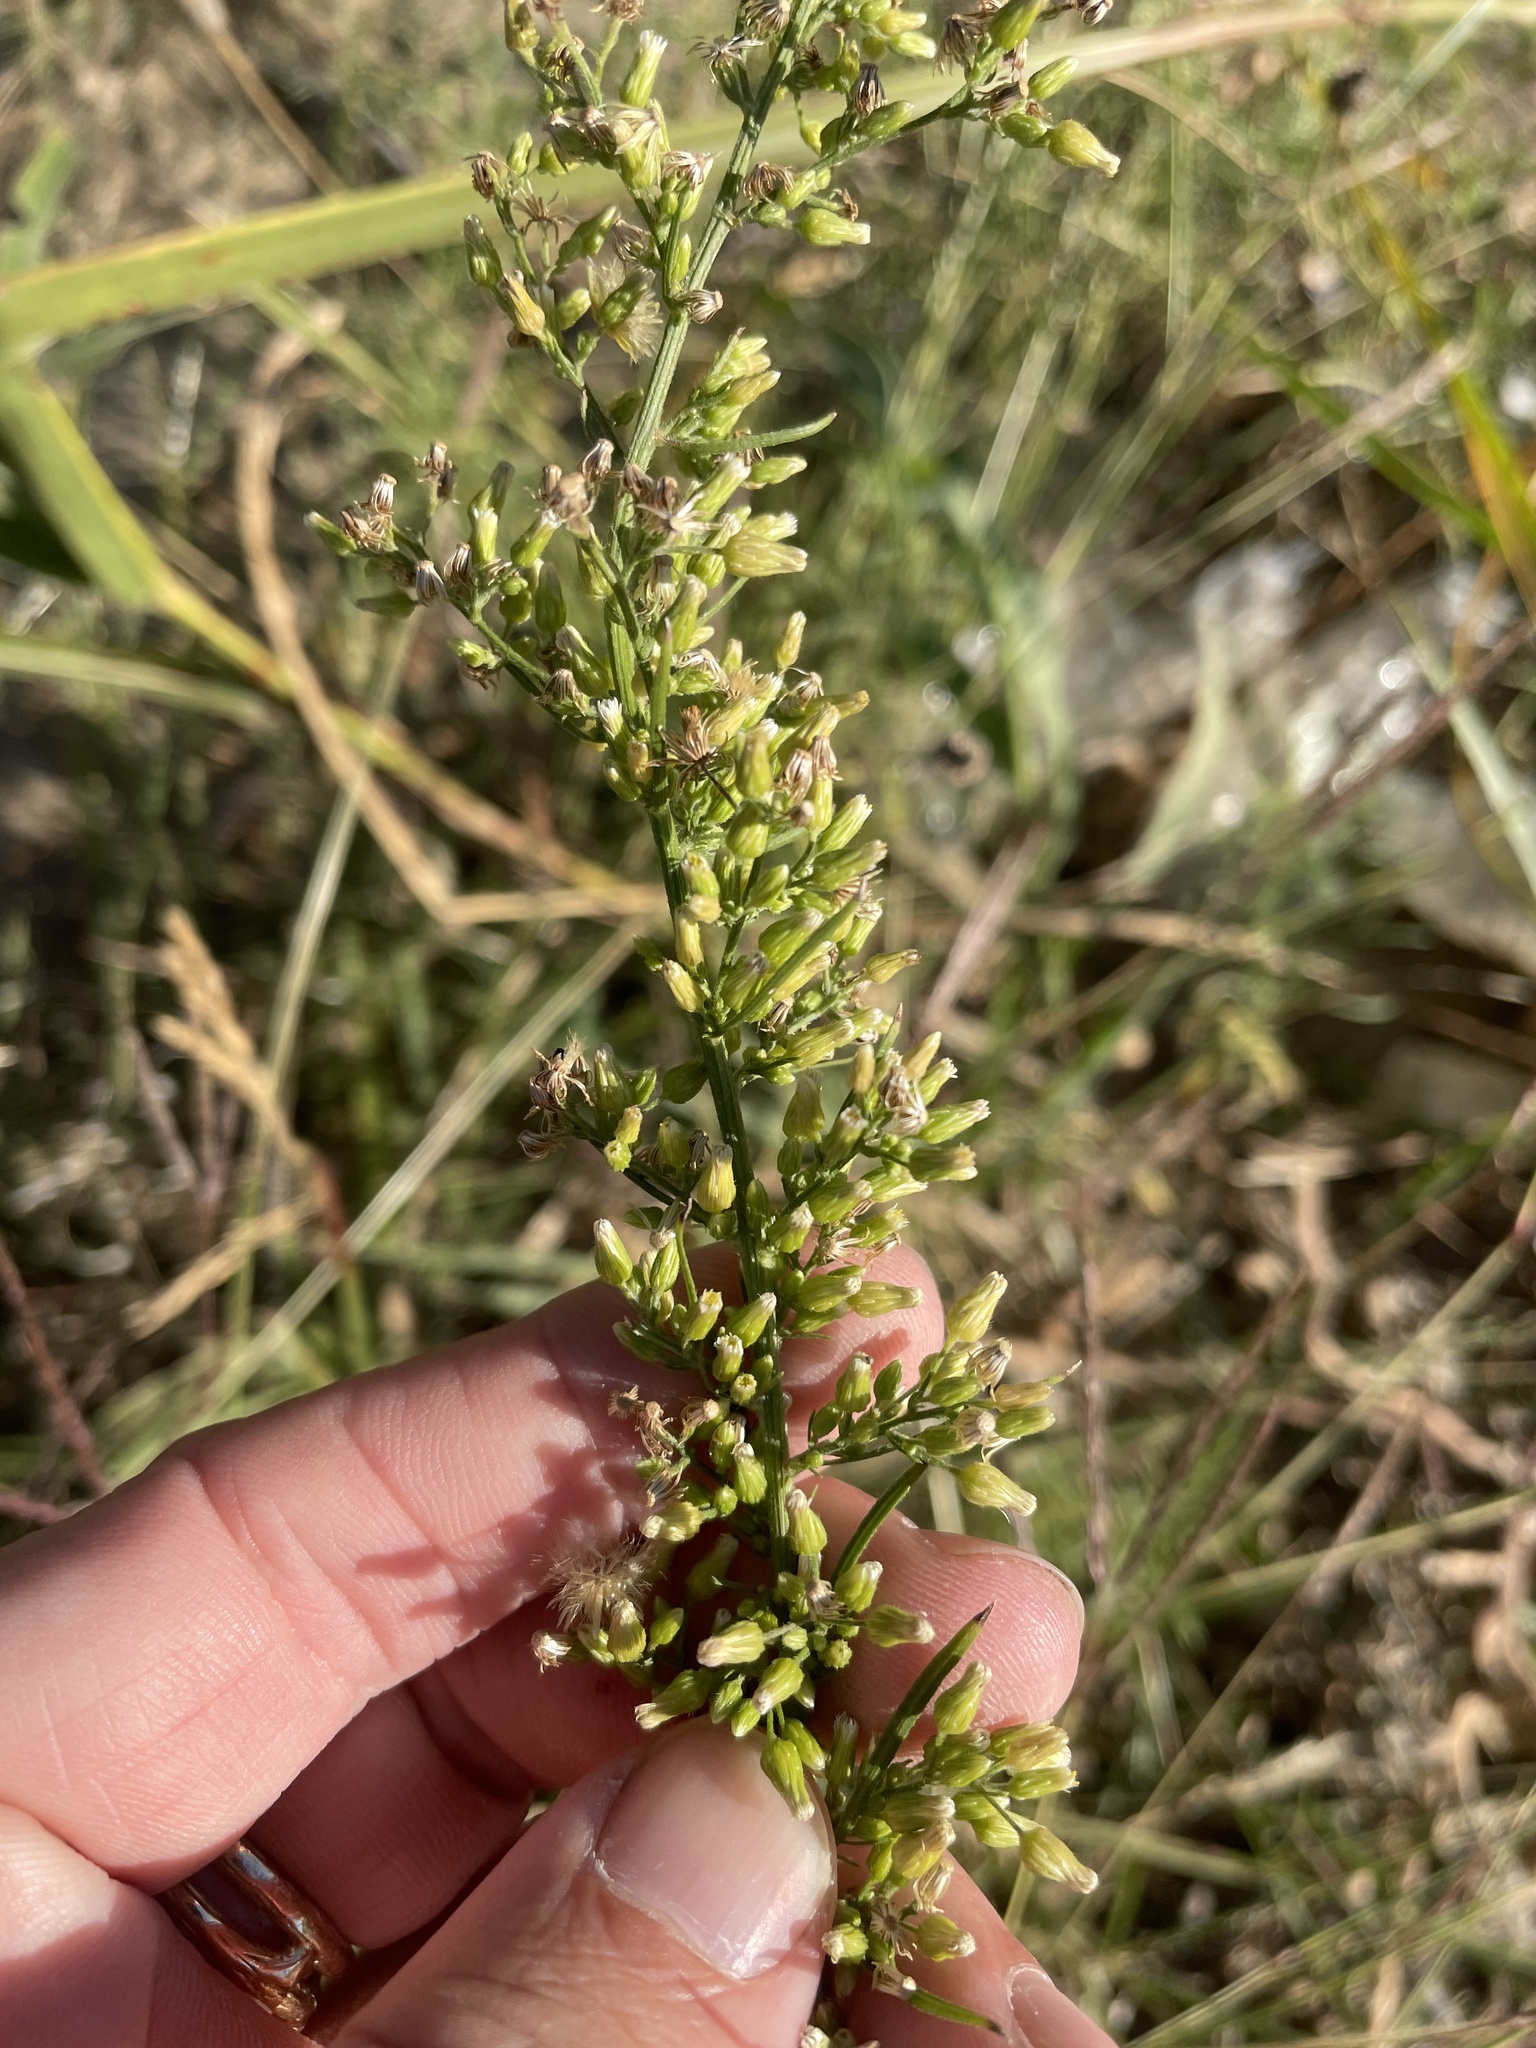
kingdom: Plantae
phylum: Tracheophyta
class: Magnoliopsida
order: Asterales
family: Asteraceae
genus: Erigeron
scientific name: Erigeron canadensis
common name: Canadian fleabane
